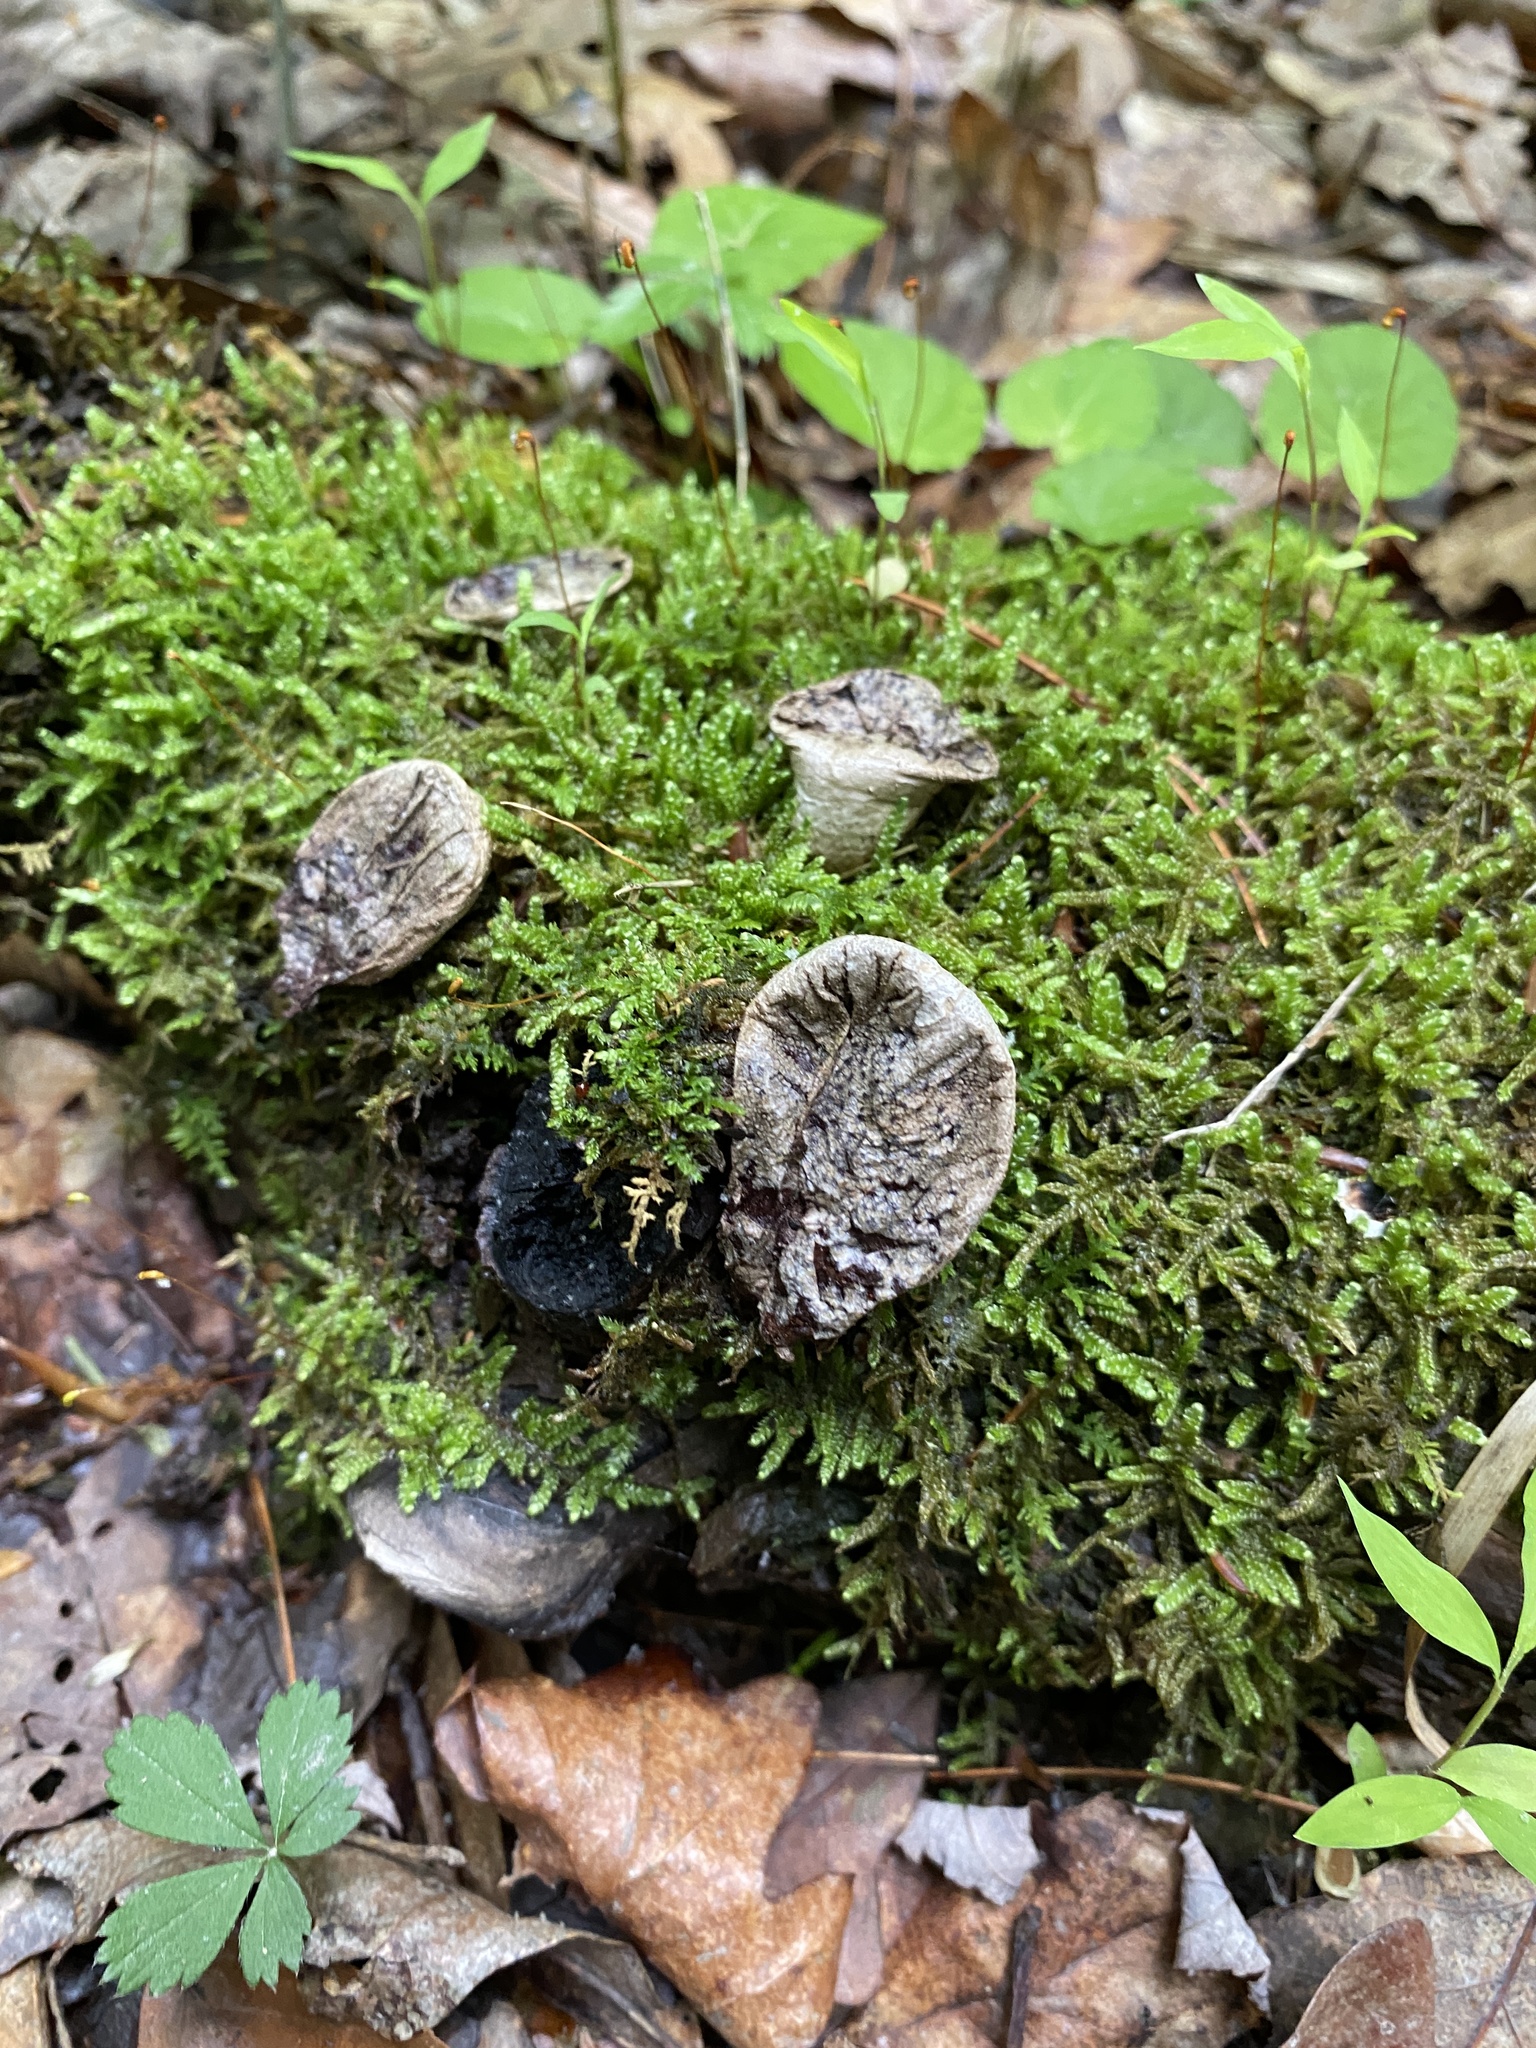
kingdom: Fungi
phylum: Basidiomycota
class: Agaricomycetes
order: Agaricales
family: Lycoperdaceae
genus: Apioperdon
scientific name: Apioperdon pyriforme
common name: Pear-shaped puffball
